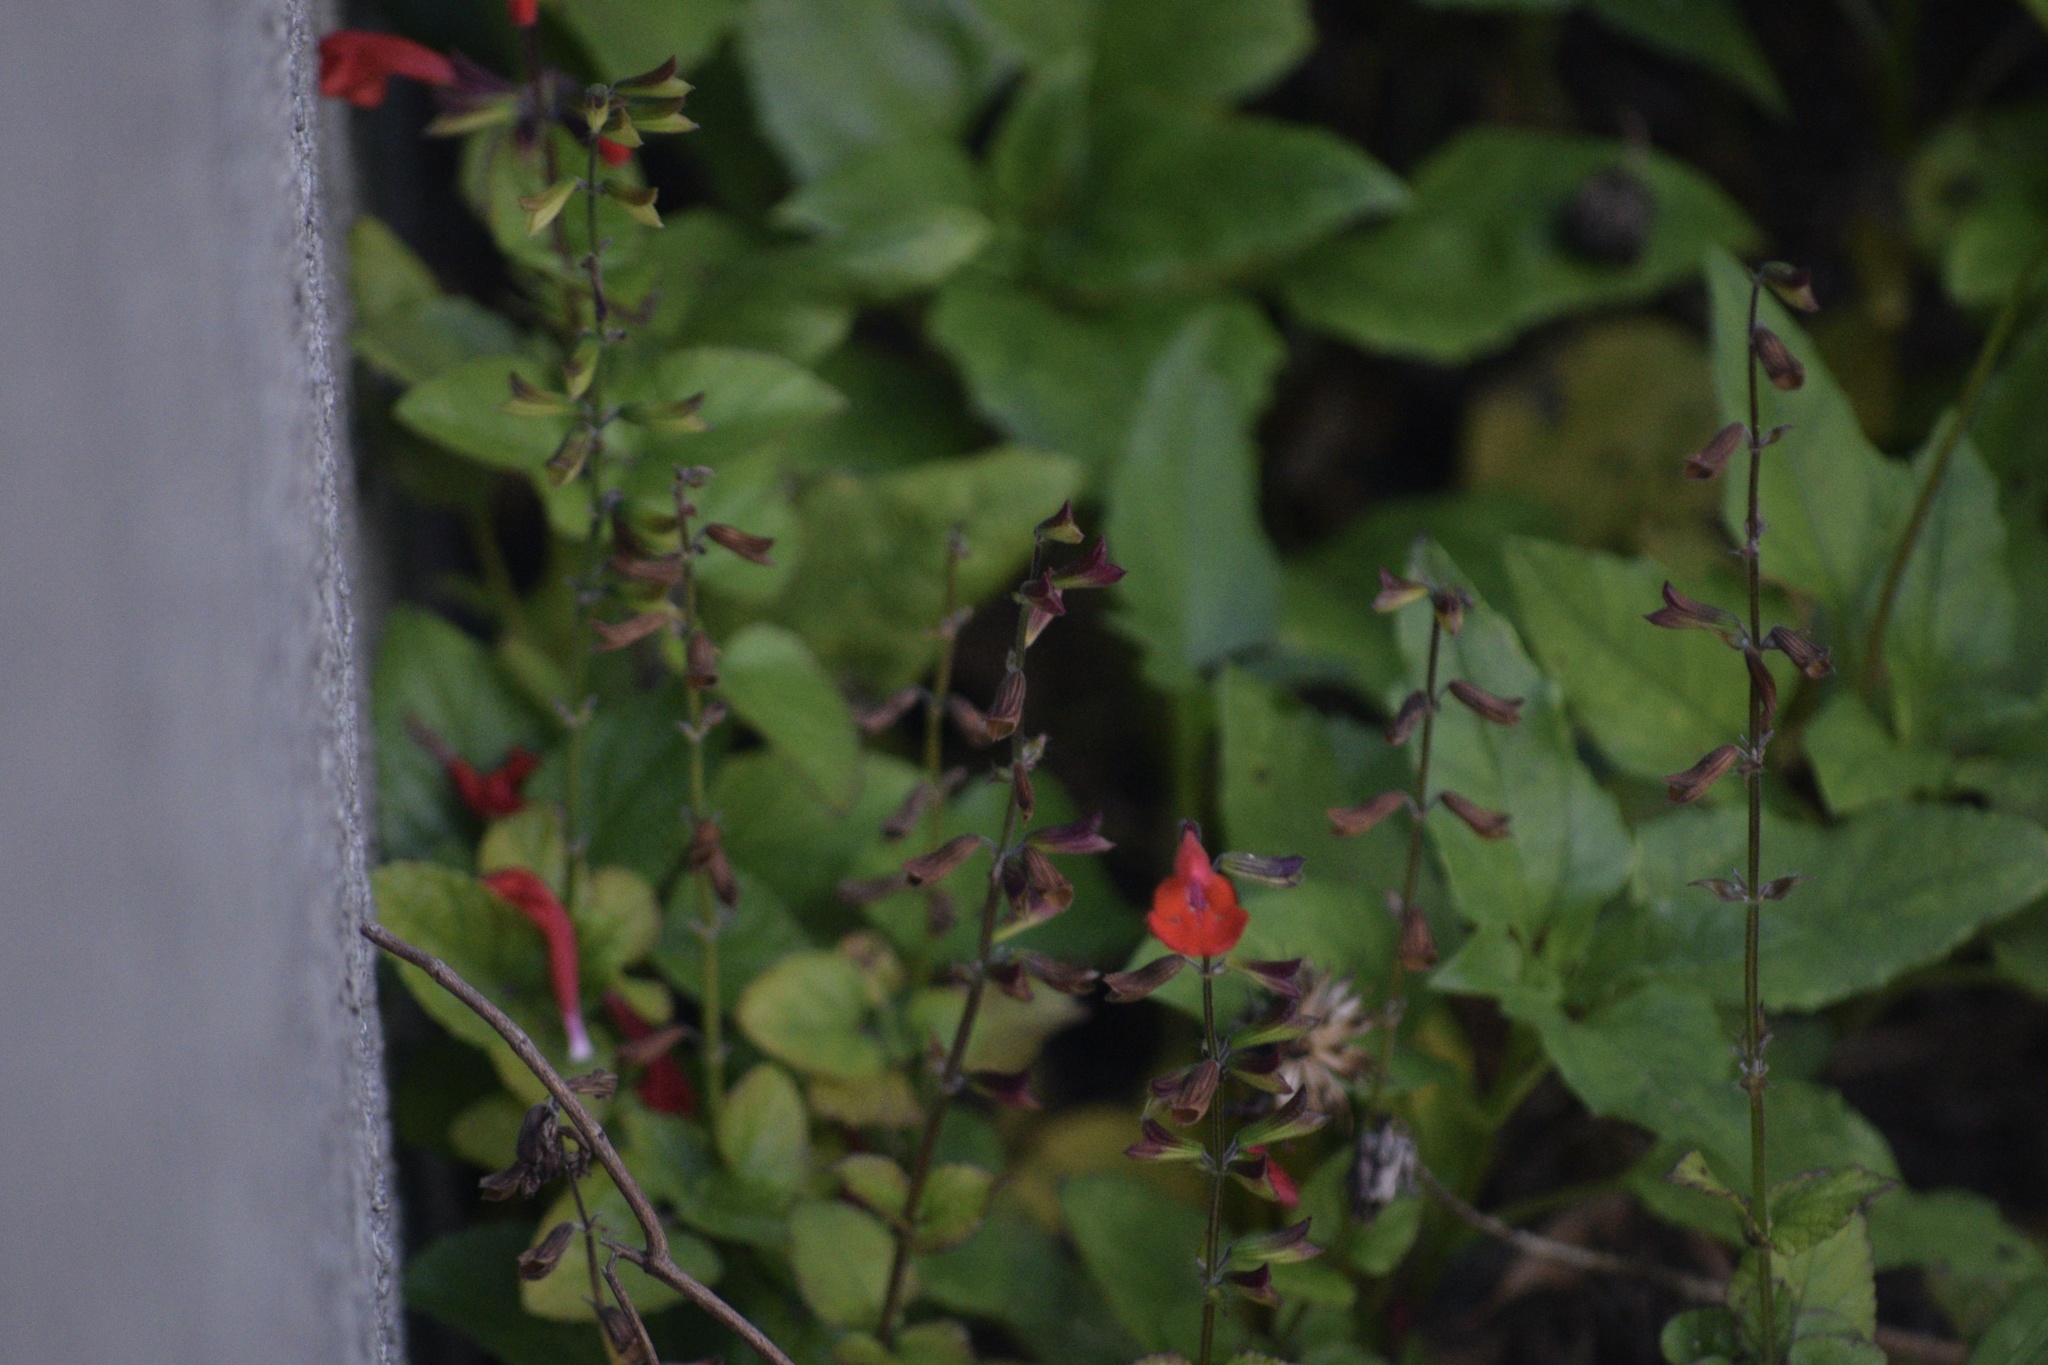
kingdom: Plantae
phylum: Tracheophyta
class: Magnoliopsida
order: Lamiales
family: Lamiaceae
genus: Salvia
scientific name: Salvia coccinea
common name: Blood sage
